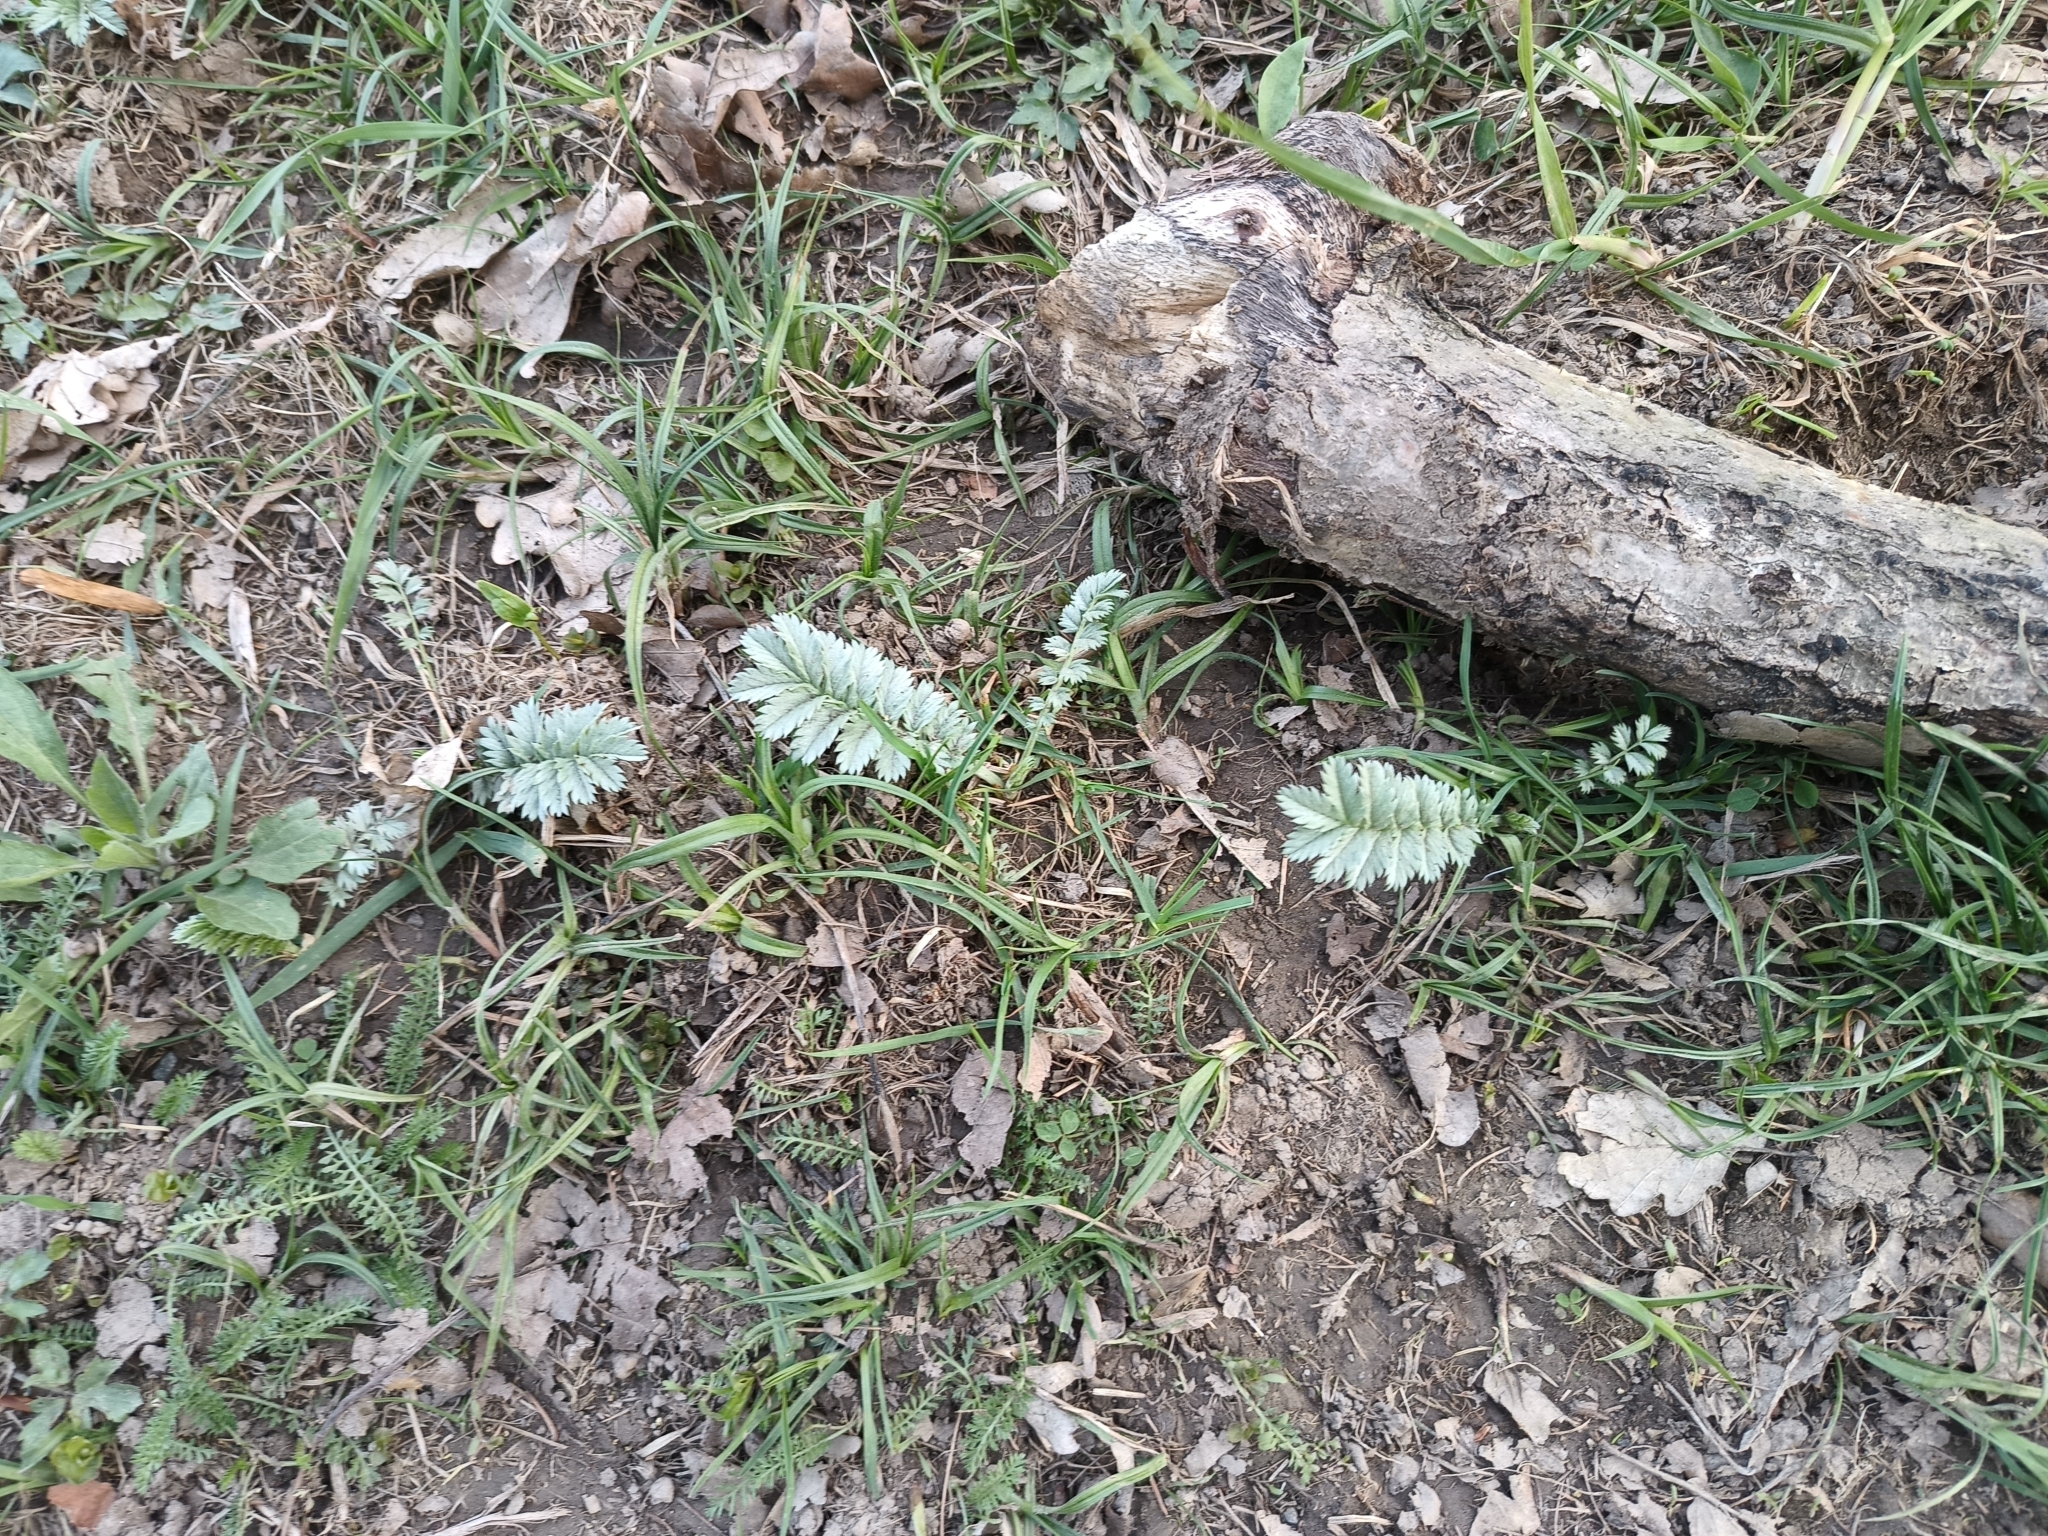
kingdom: Plantae
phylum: Tracheophyta
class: Magnoliopsida
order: Rosales
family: Rosaceae
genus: Argentina
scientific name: Argentina anserina
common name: Common silverweed
